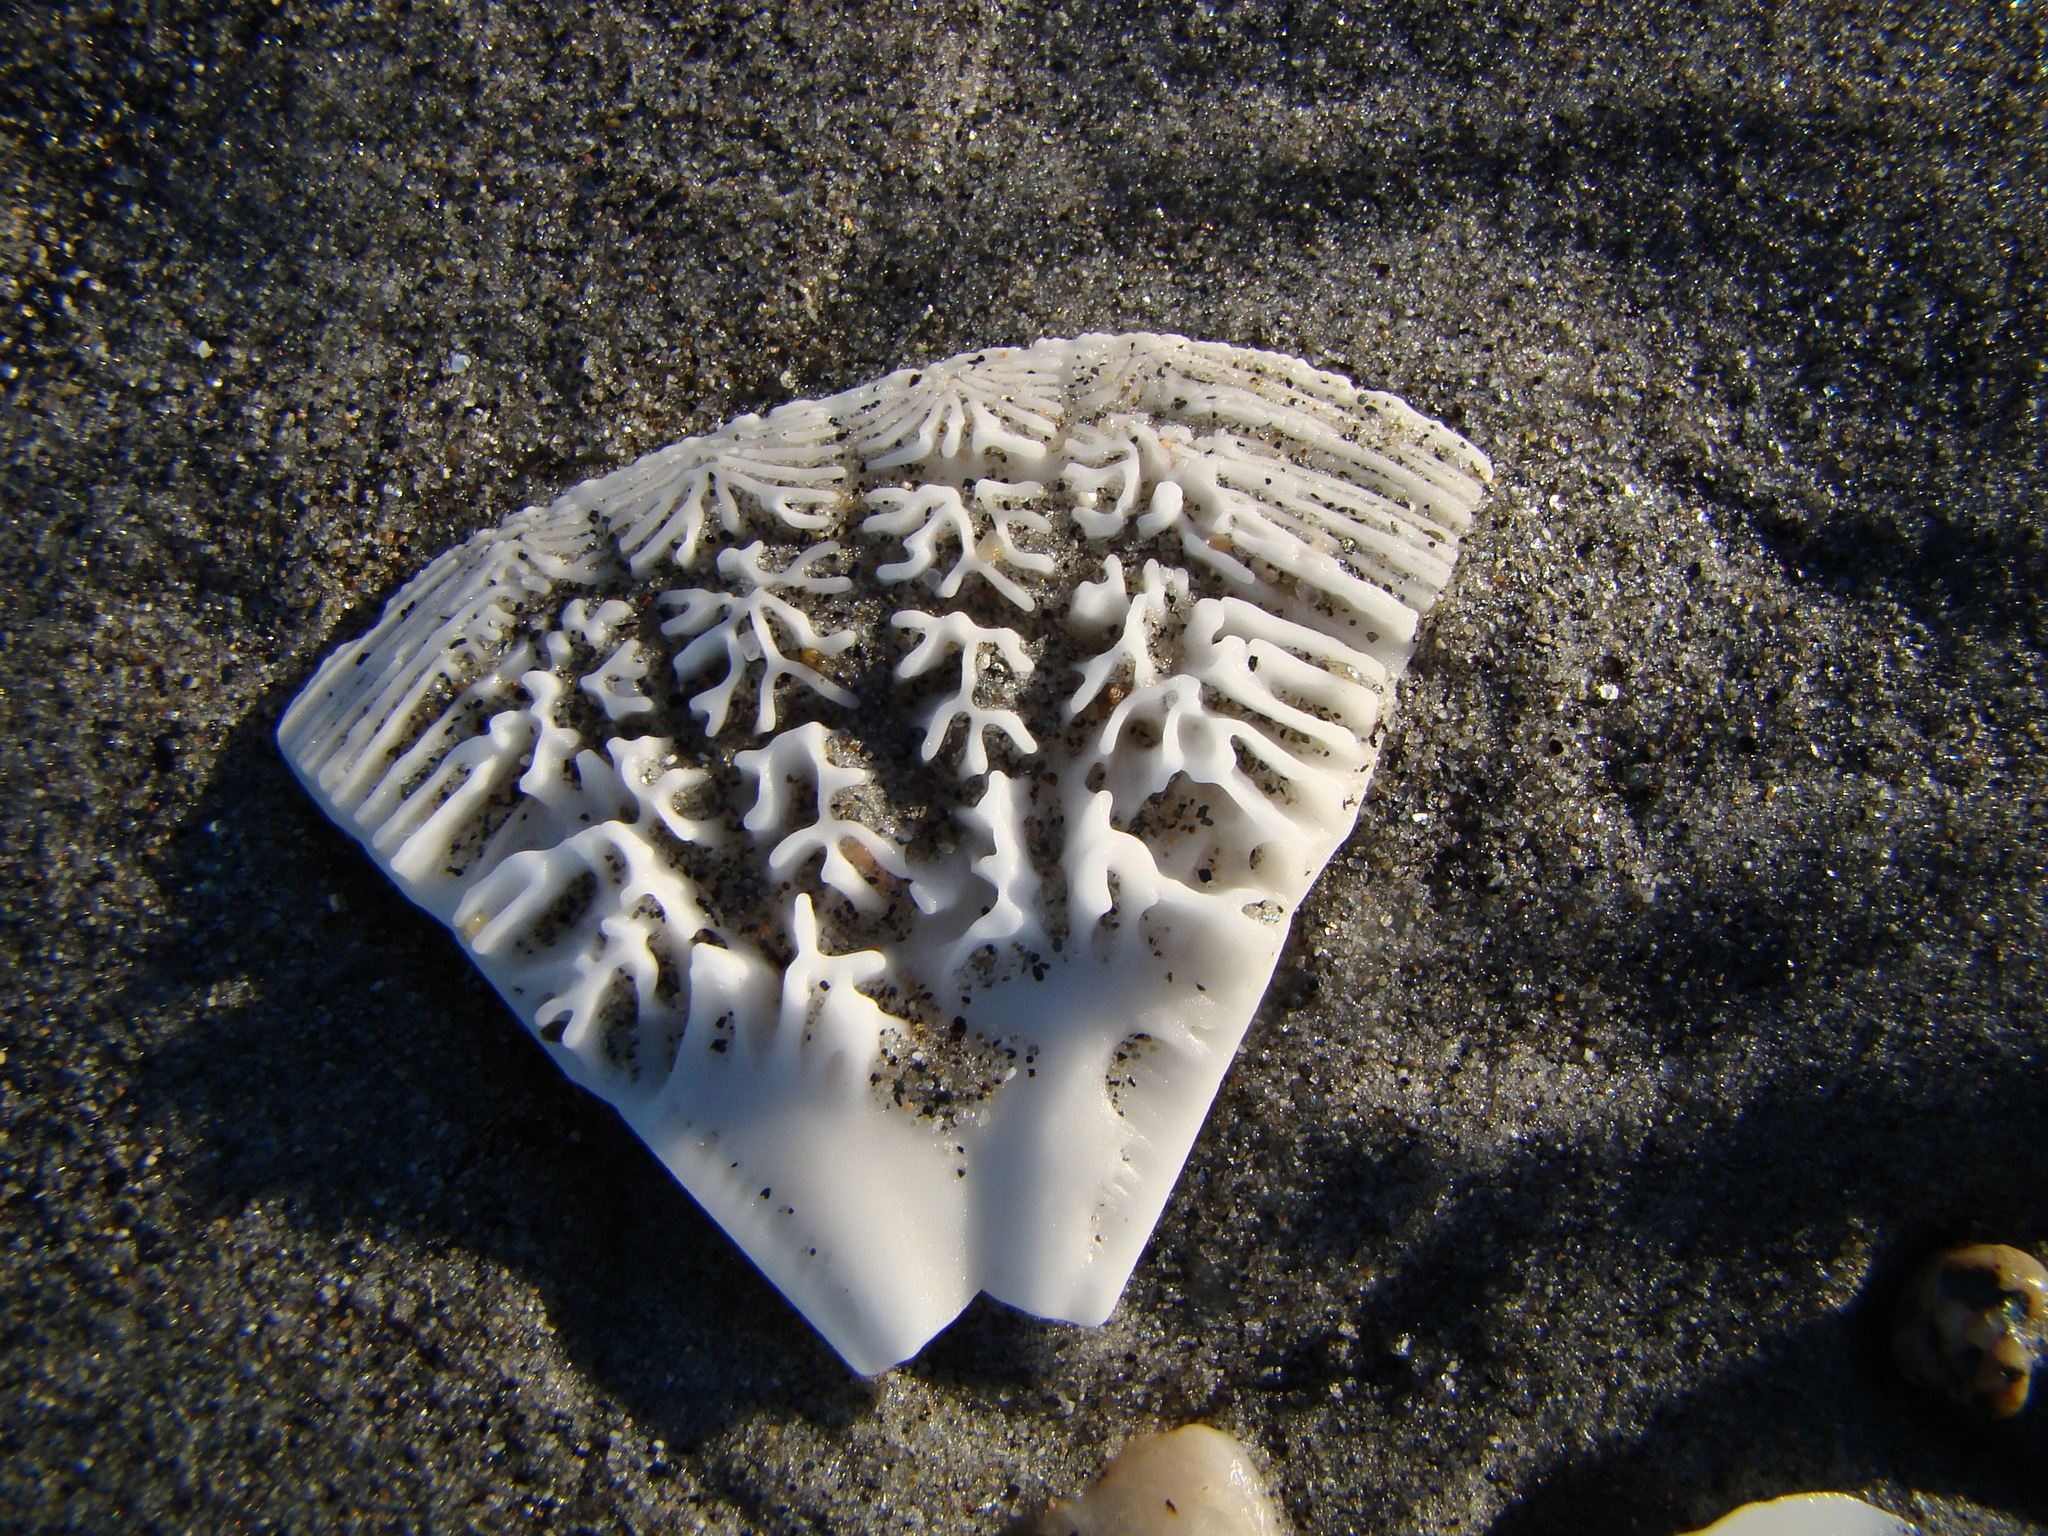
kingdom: Animalia
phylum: Echinodermata
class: Echinoidea
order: Clypeasteroida
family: Clypeasteridae
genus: Fellaster
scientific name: Fellaster zelandiae
